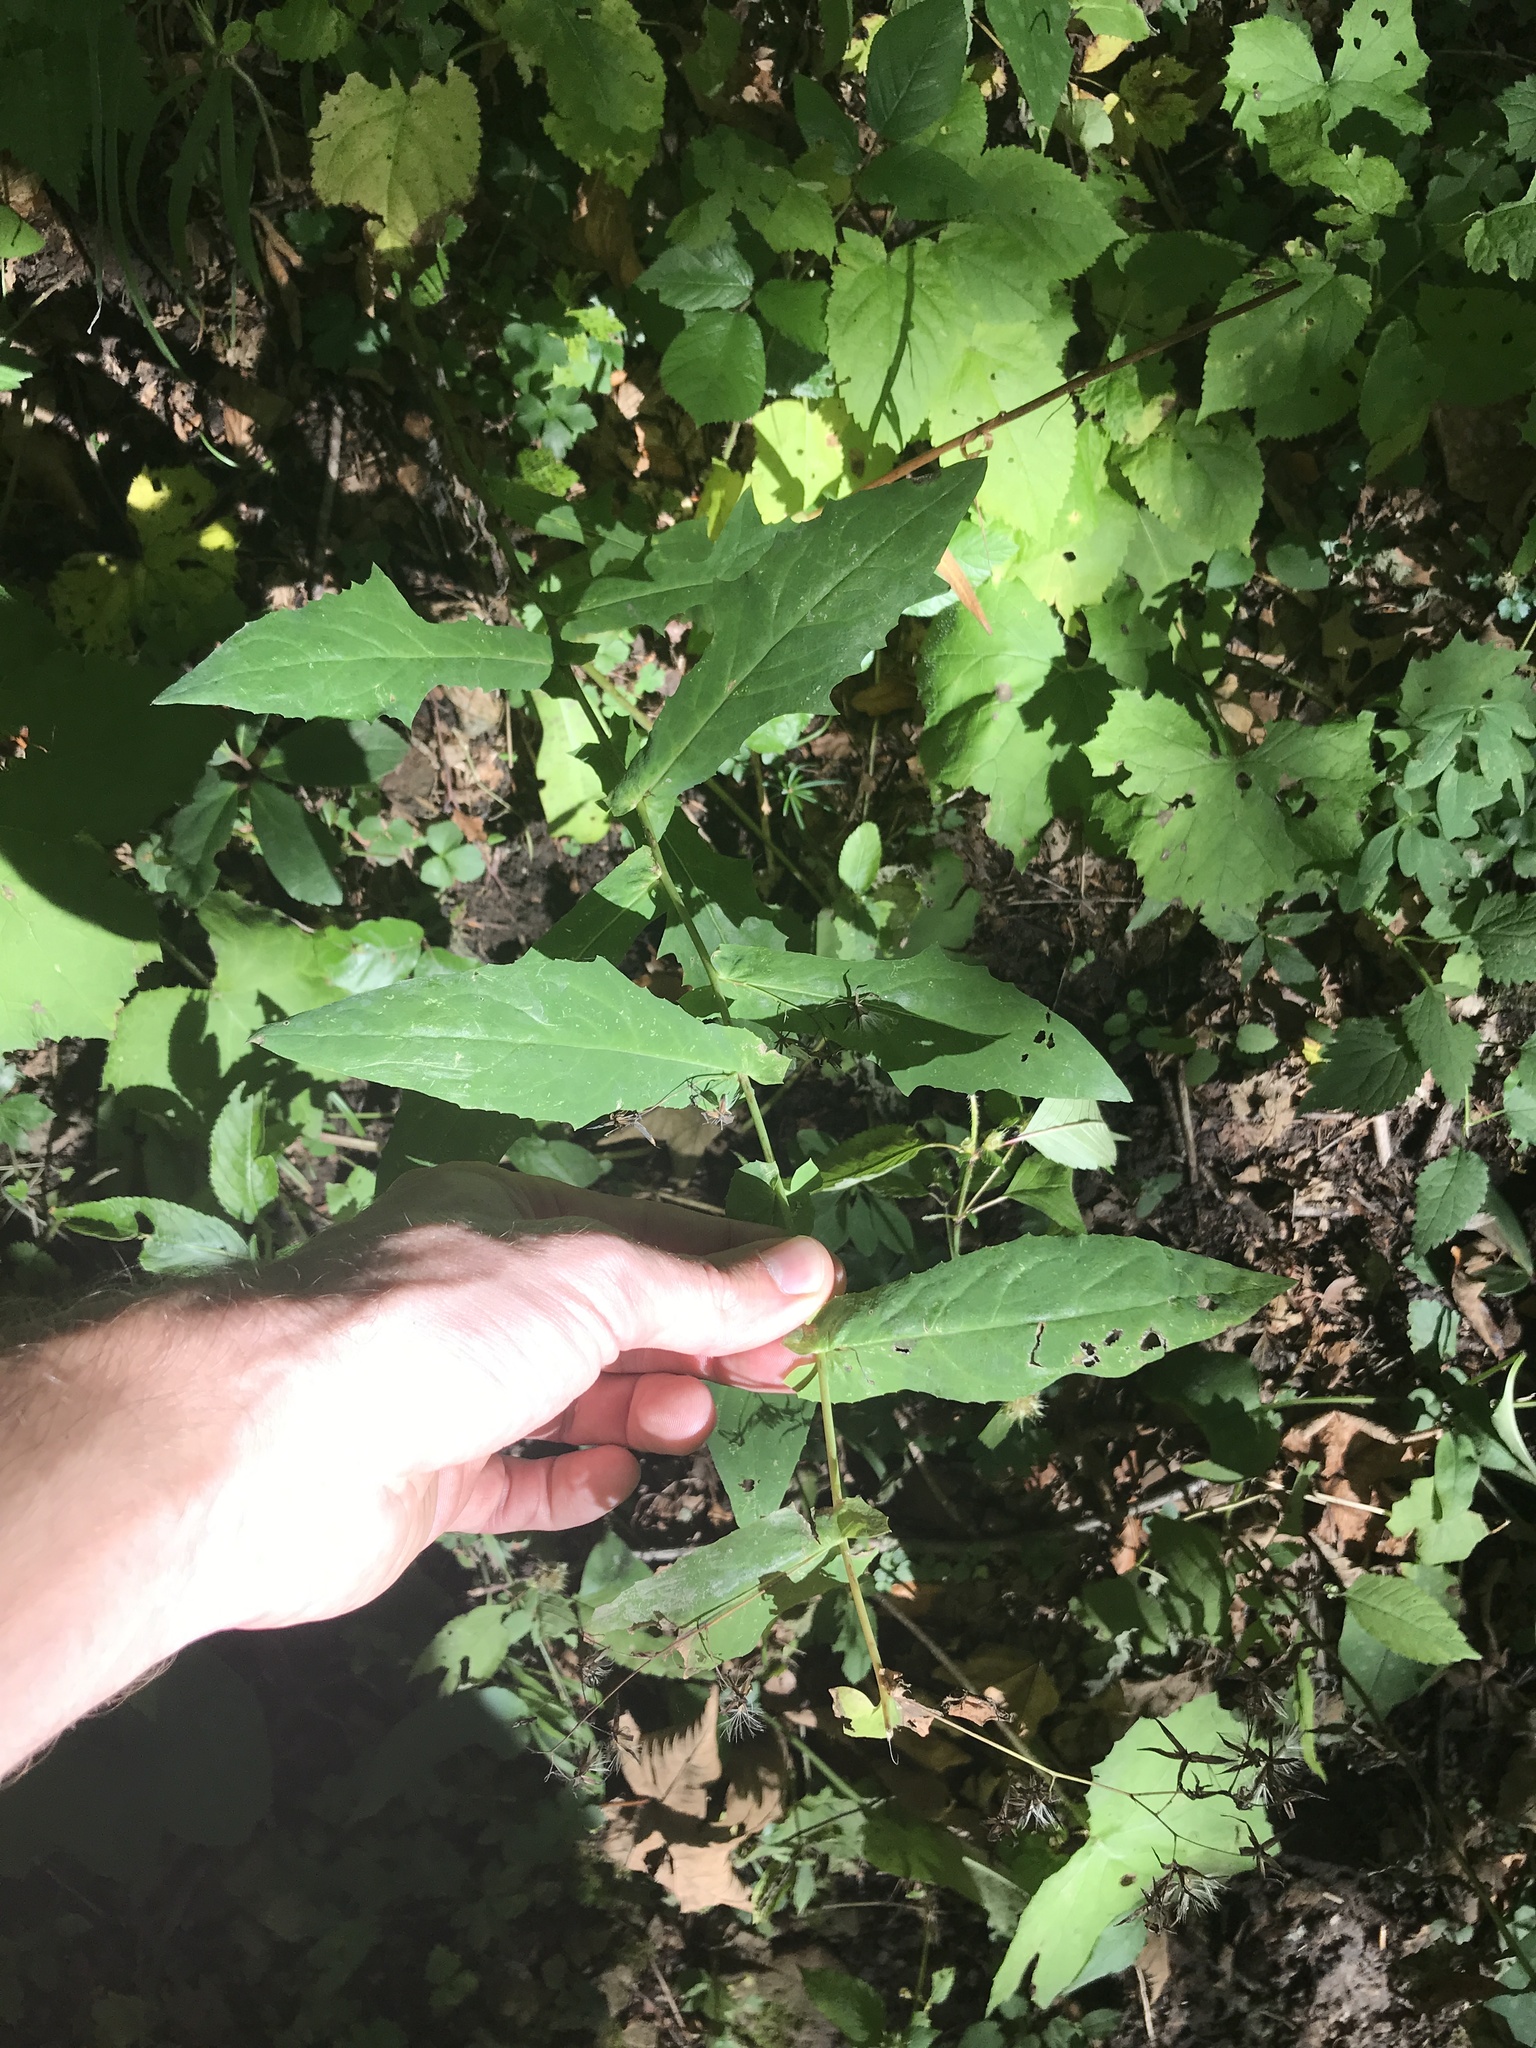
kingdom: Plantae
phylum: Tracheophyta
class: Magnoliopsida
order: Asterales
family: Asteraceae
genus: Prenanthes
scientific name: Prenanthes purpurea
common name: Purple lettuce
